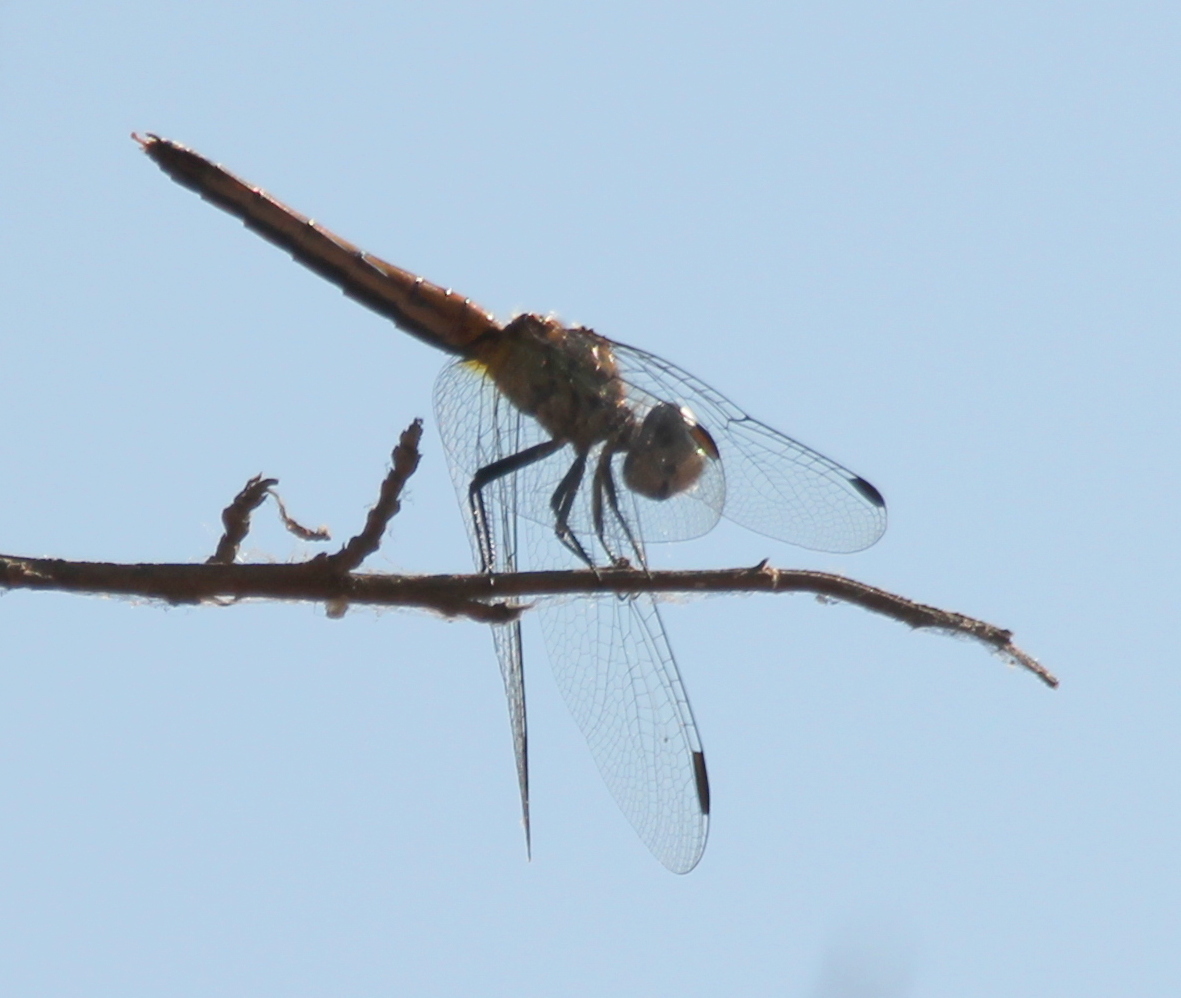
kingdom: Animalia
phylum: Arthropoda
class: Insecta
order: Odonata
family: Libellulidae
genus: Pachydiplax
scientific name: Pachydiplax longipennis
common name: Blue dasher
